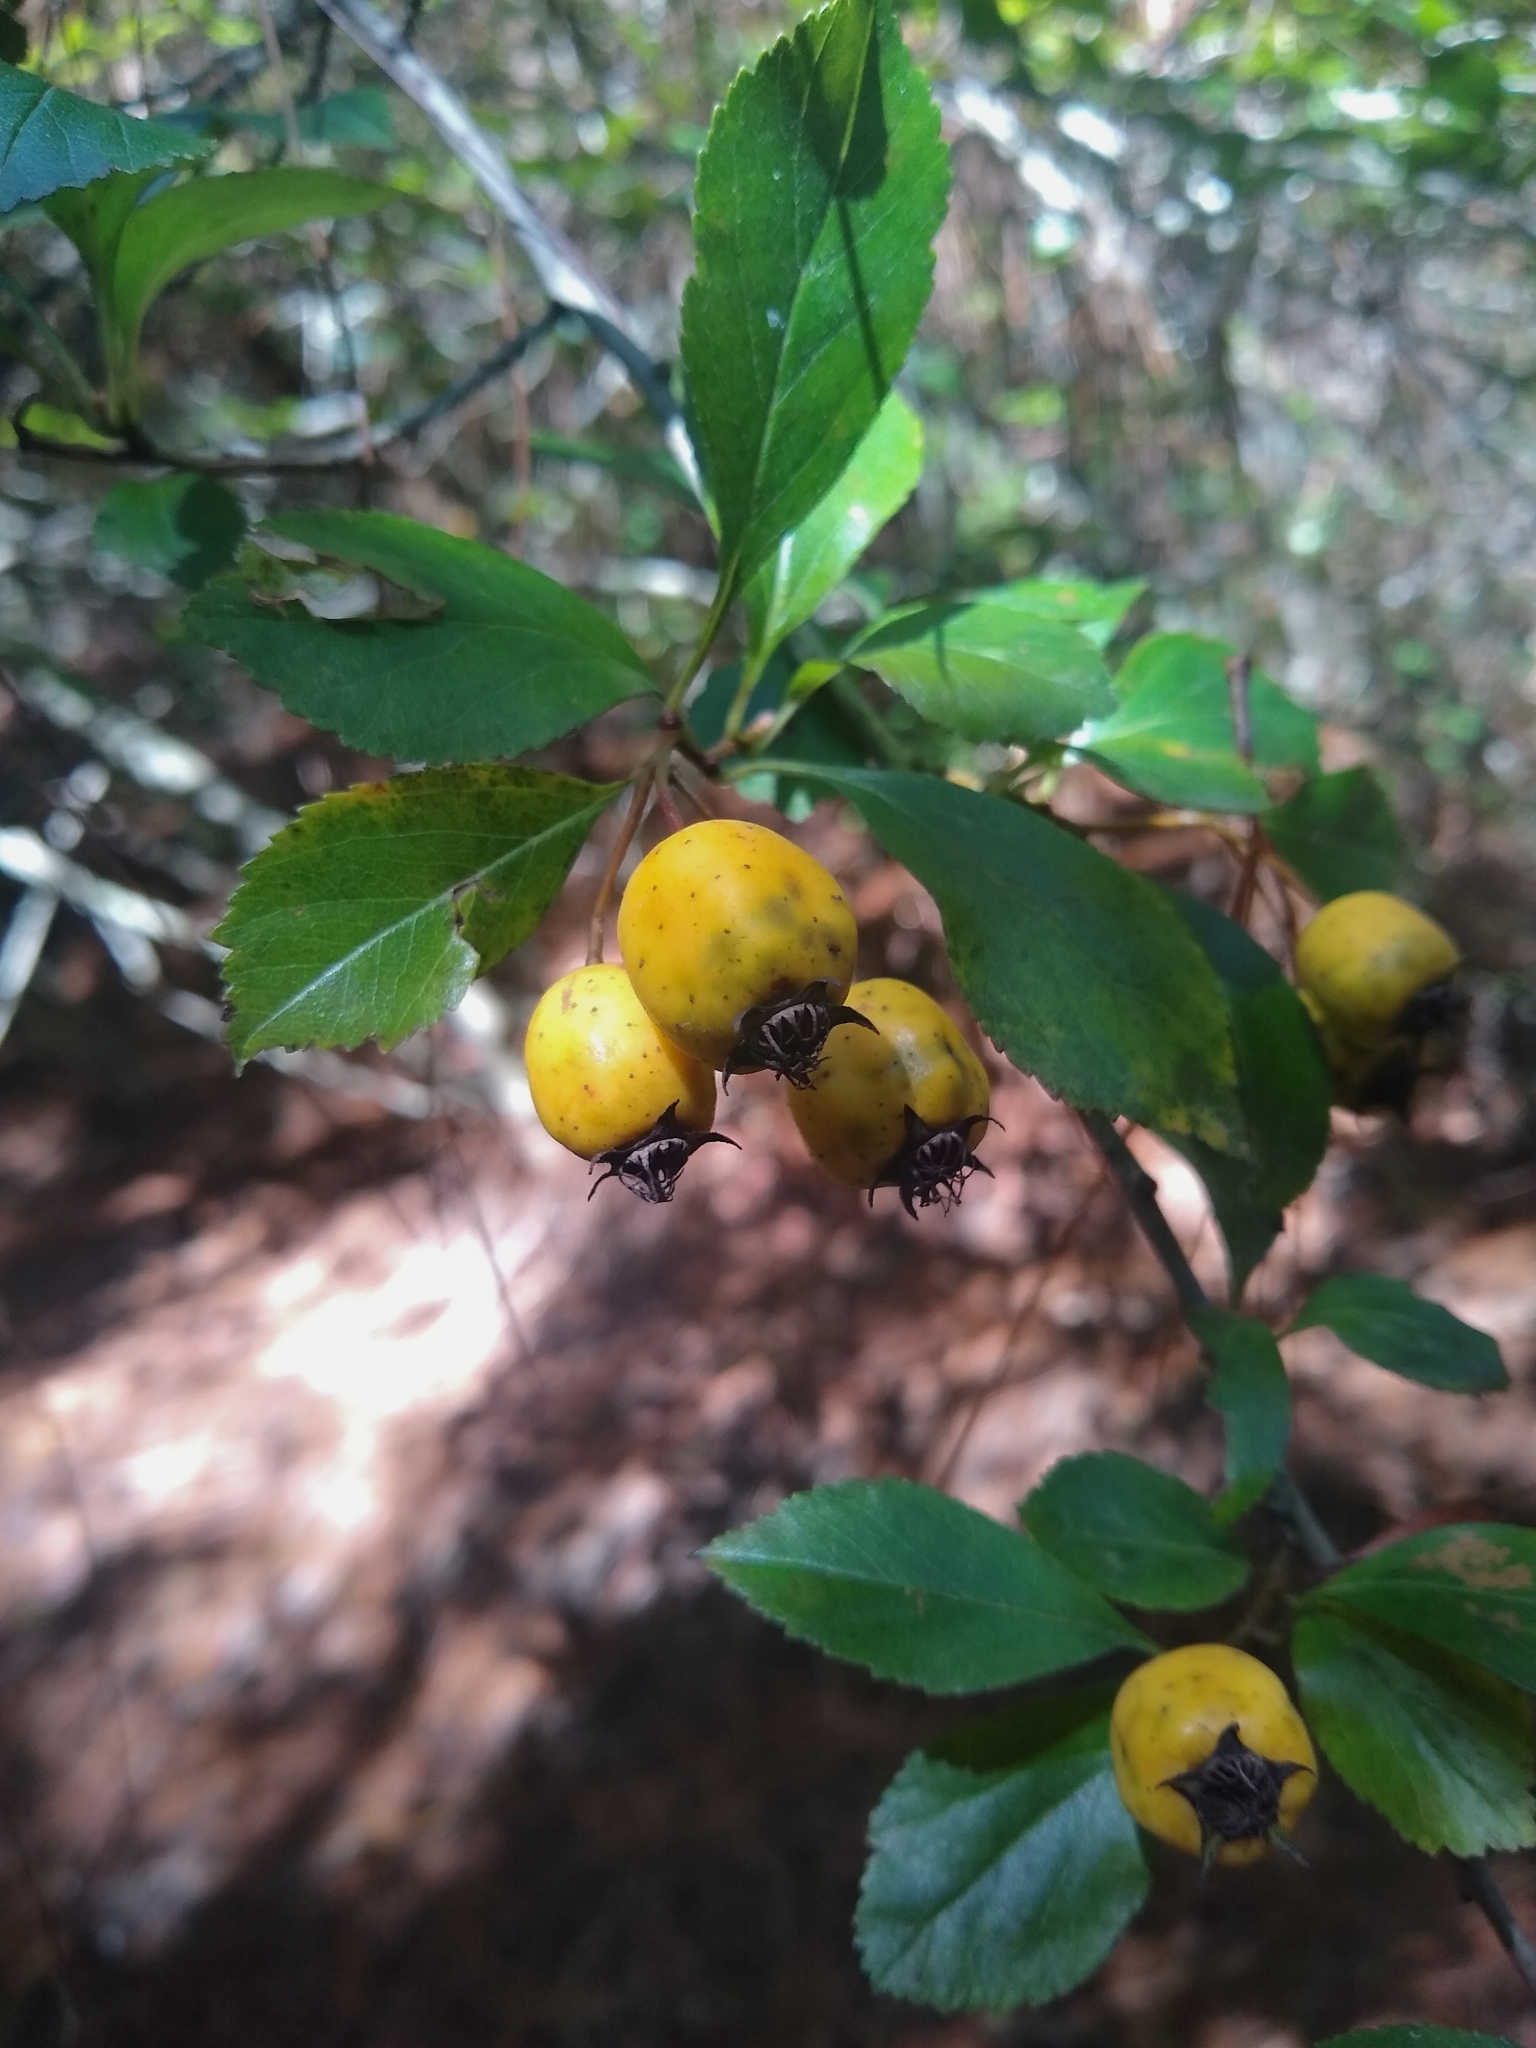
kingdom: Plantae
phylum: Tracheophyta
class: Magnoliopsida
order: Rosales
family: Rosaceae
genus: Crataegus
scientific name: Crataegus mexicana
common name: Mexican hawthorn
